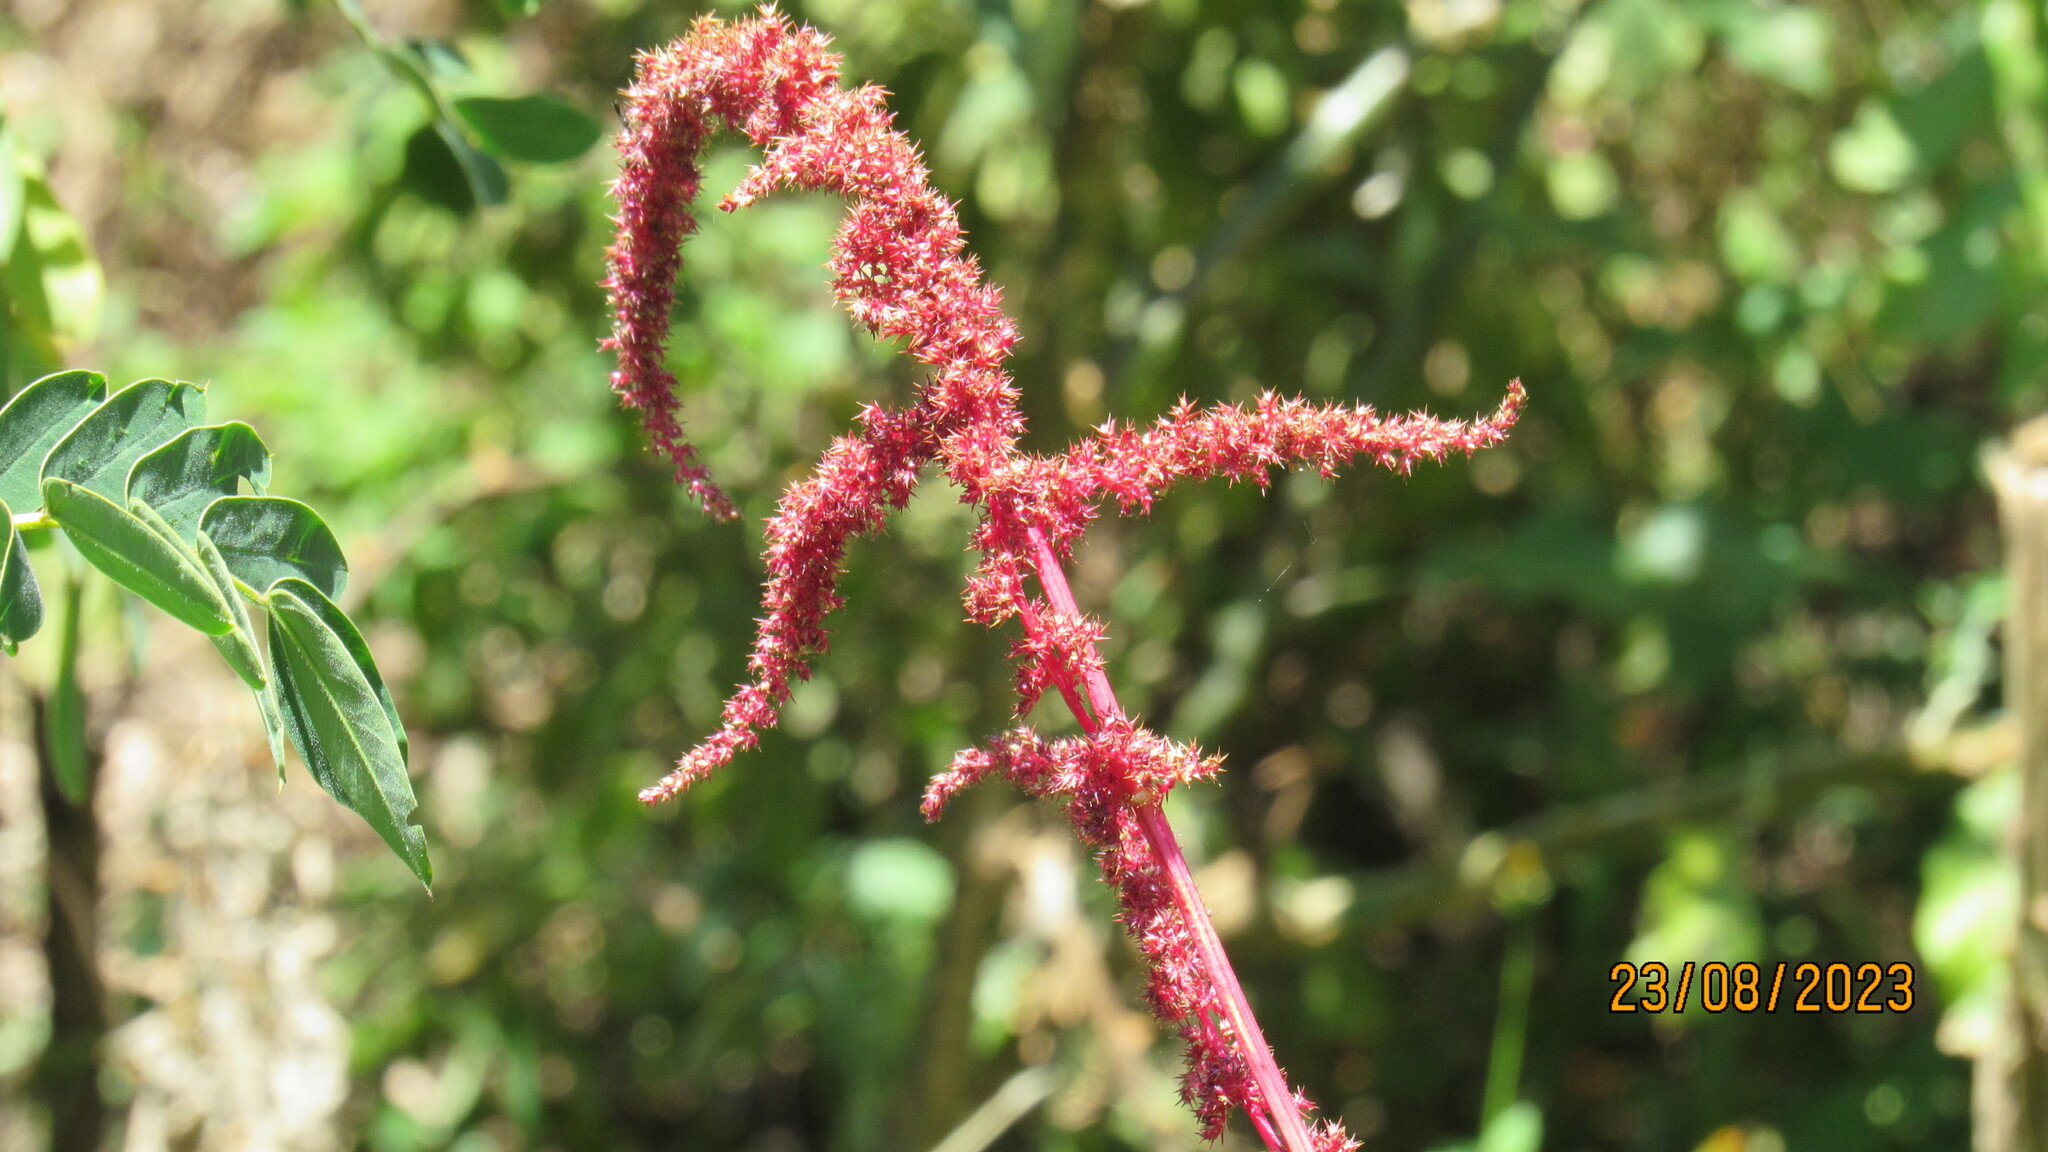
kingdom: Plantae
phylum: Tracheophyta
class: Magnoliopsida
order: Caryophyllales
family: Amaranthaceae
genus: Amaranthus
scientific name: Amaranthus caudatus
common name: Love-lies-bleeding
